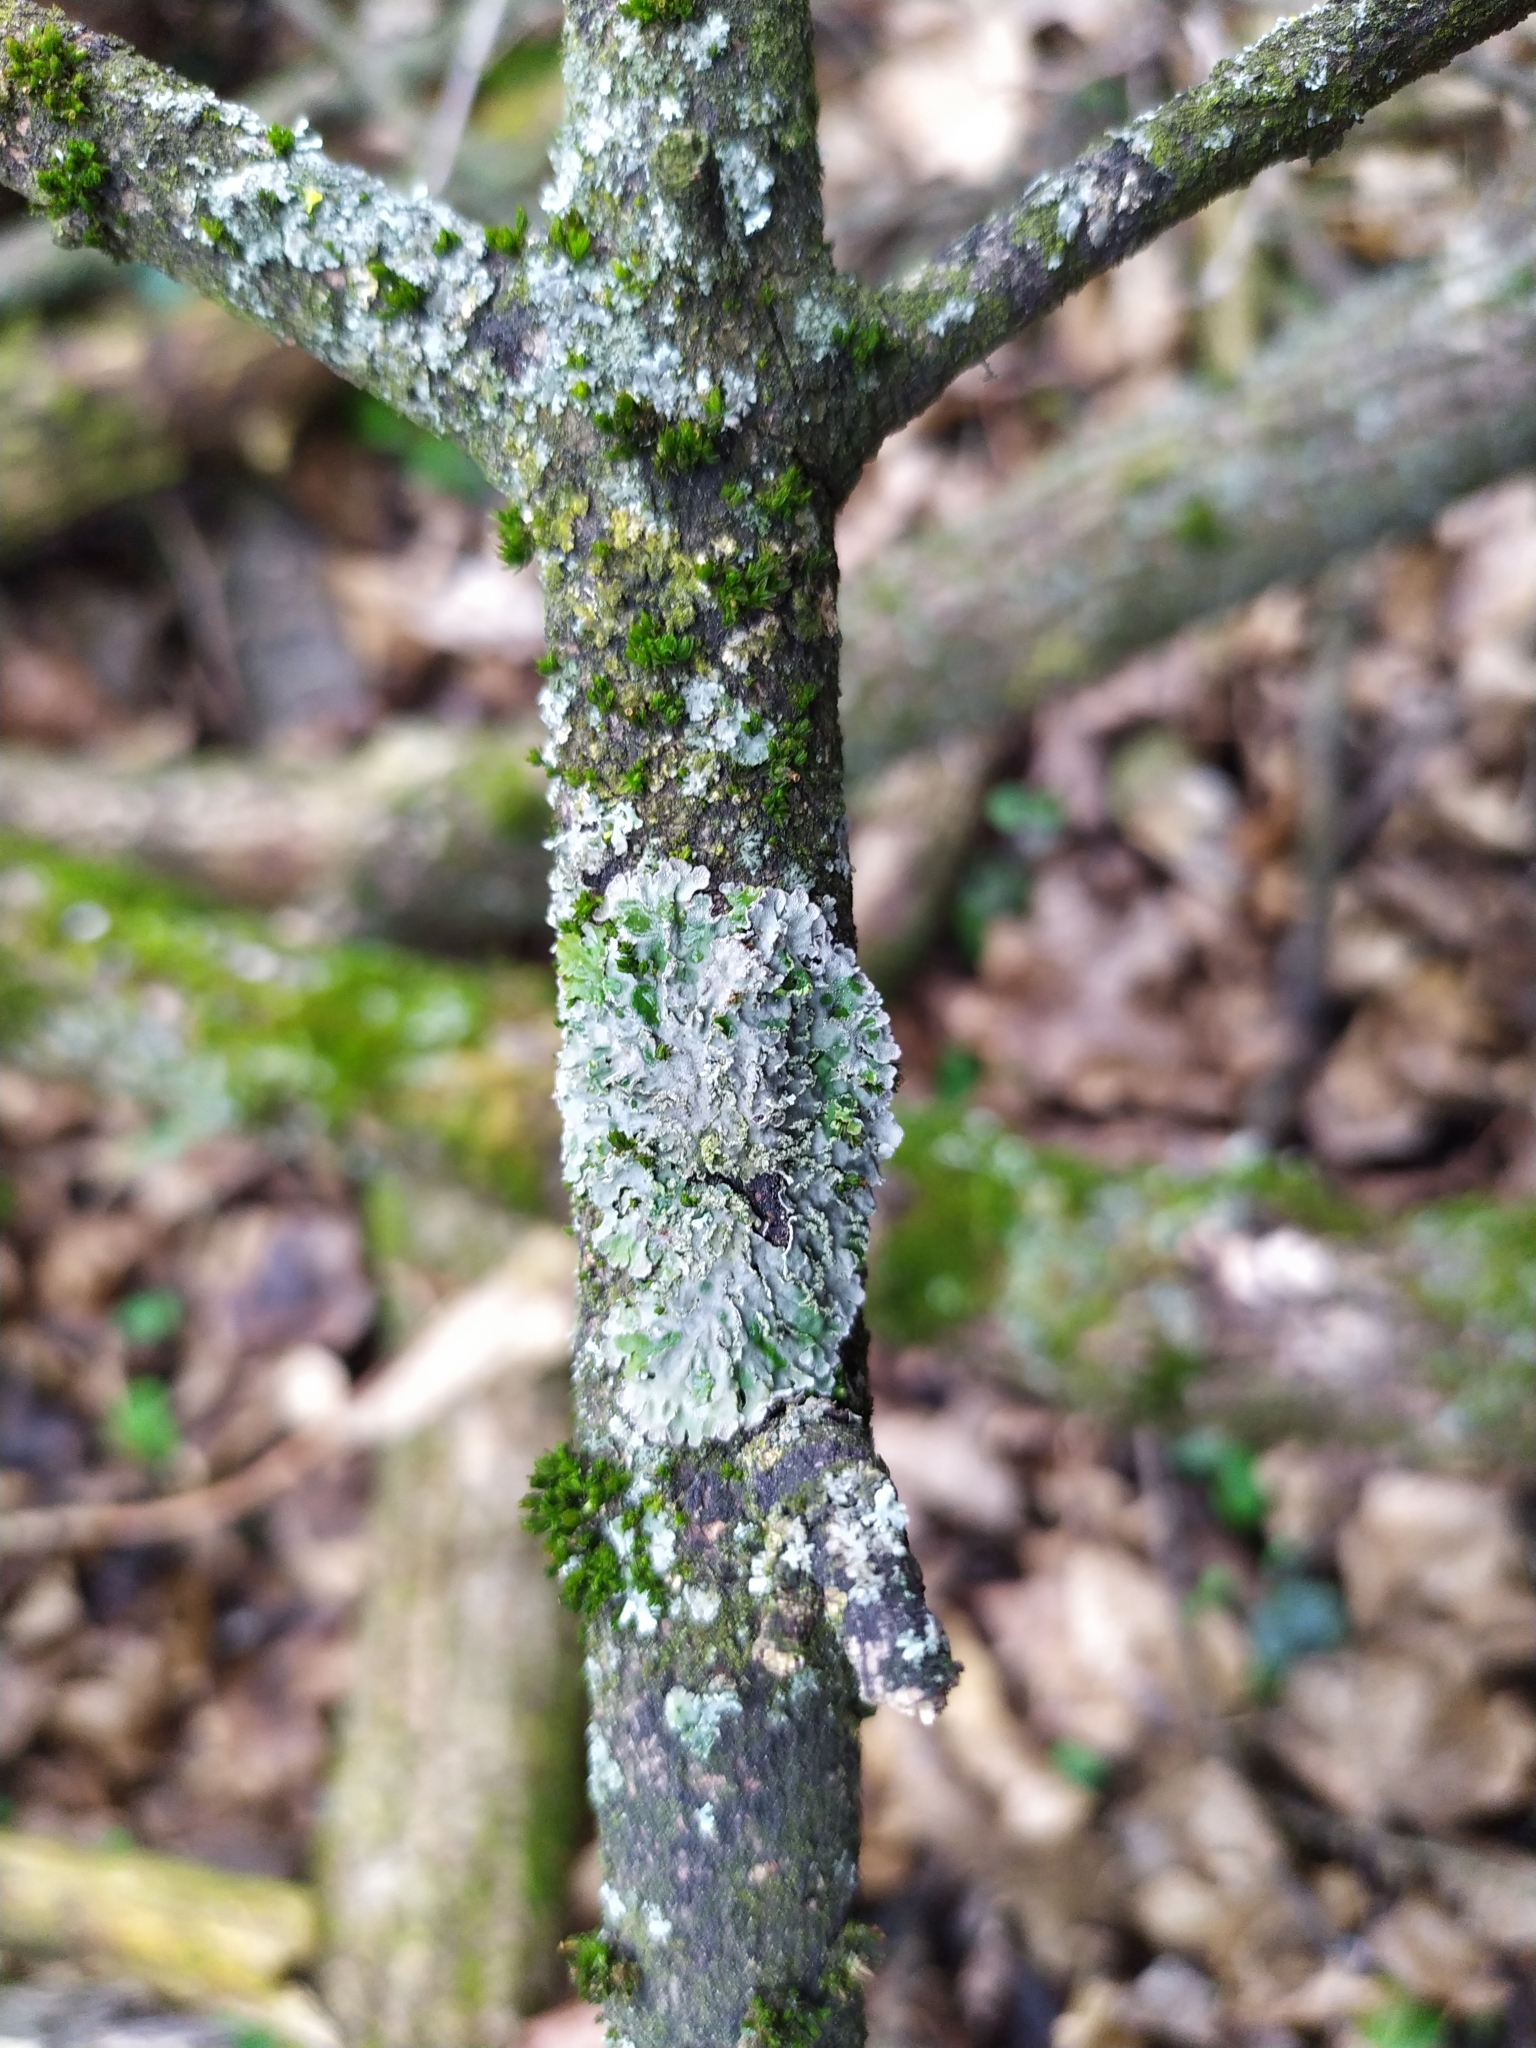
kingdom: Fungi
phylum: Ascomycota
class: Lecanoromycetes
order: Caliciales
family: Physciaceae
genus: Poeltonia
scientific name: Poeltonia grisea
